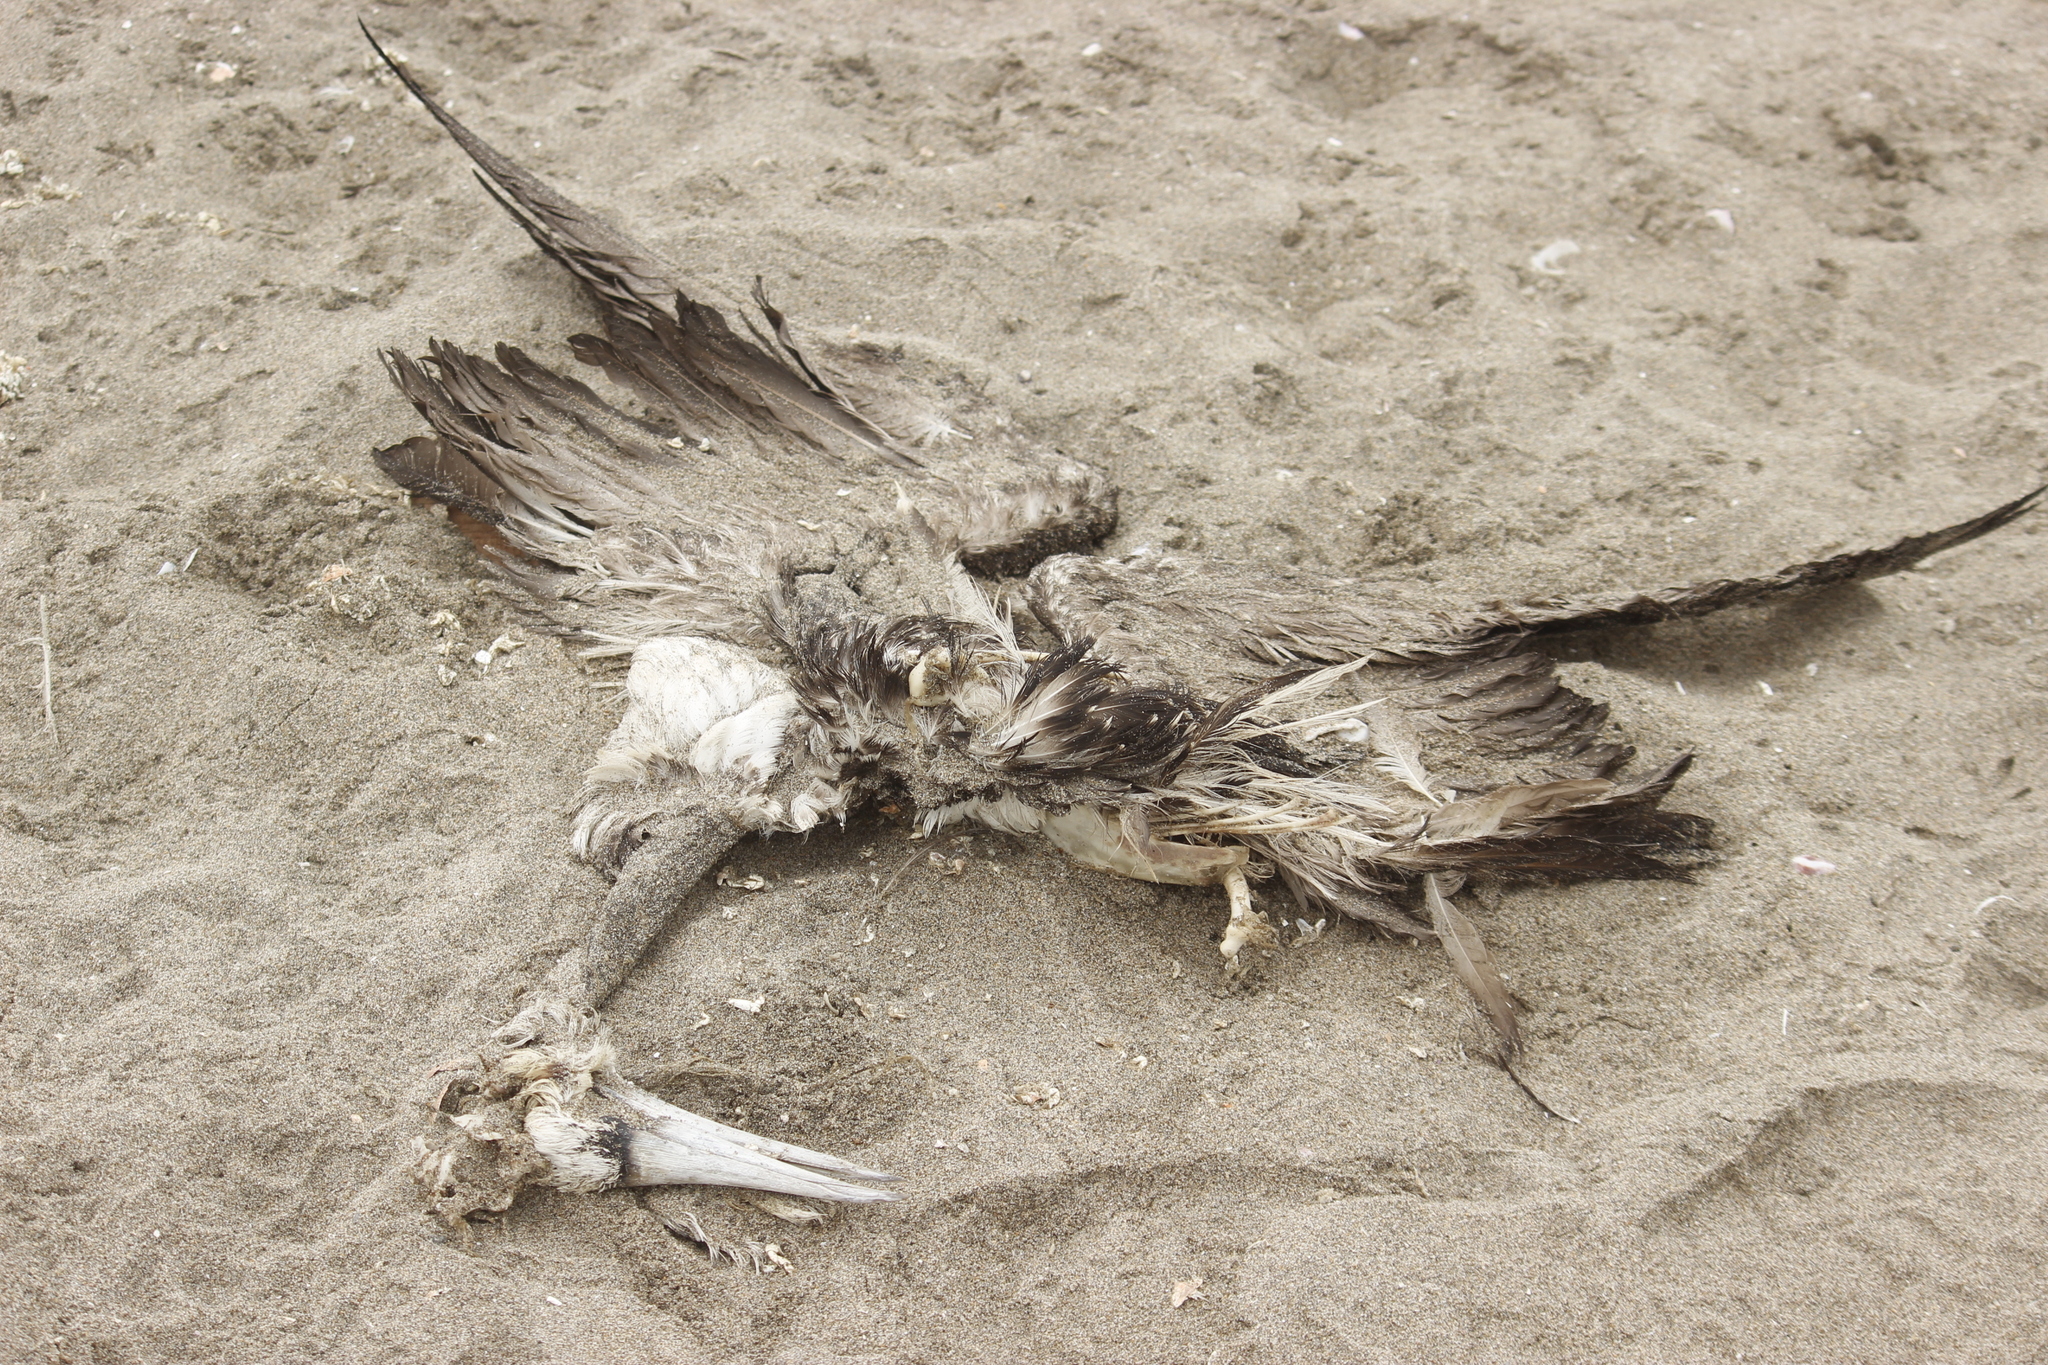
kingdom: Animalia
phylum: Chordata
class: Aves
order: Suliformes
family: Sulidae
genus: Sula
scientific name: Sula variegata
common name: Peruvian booby
